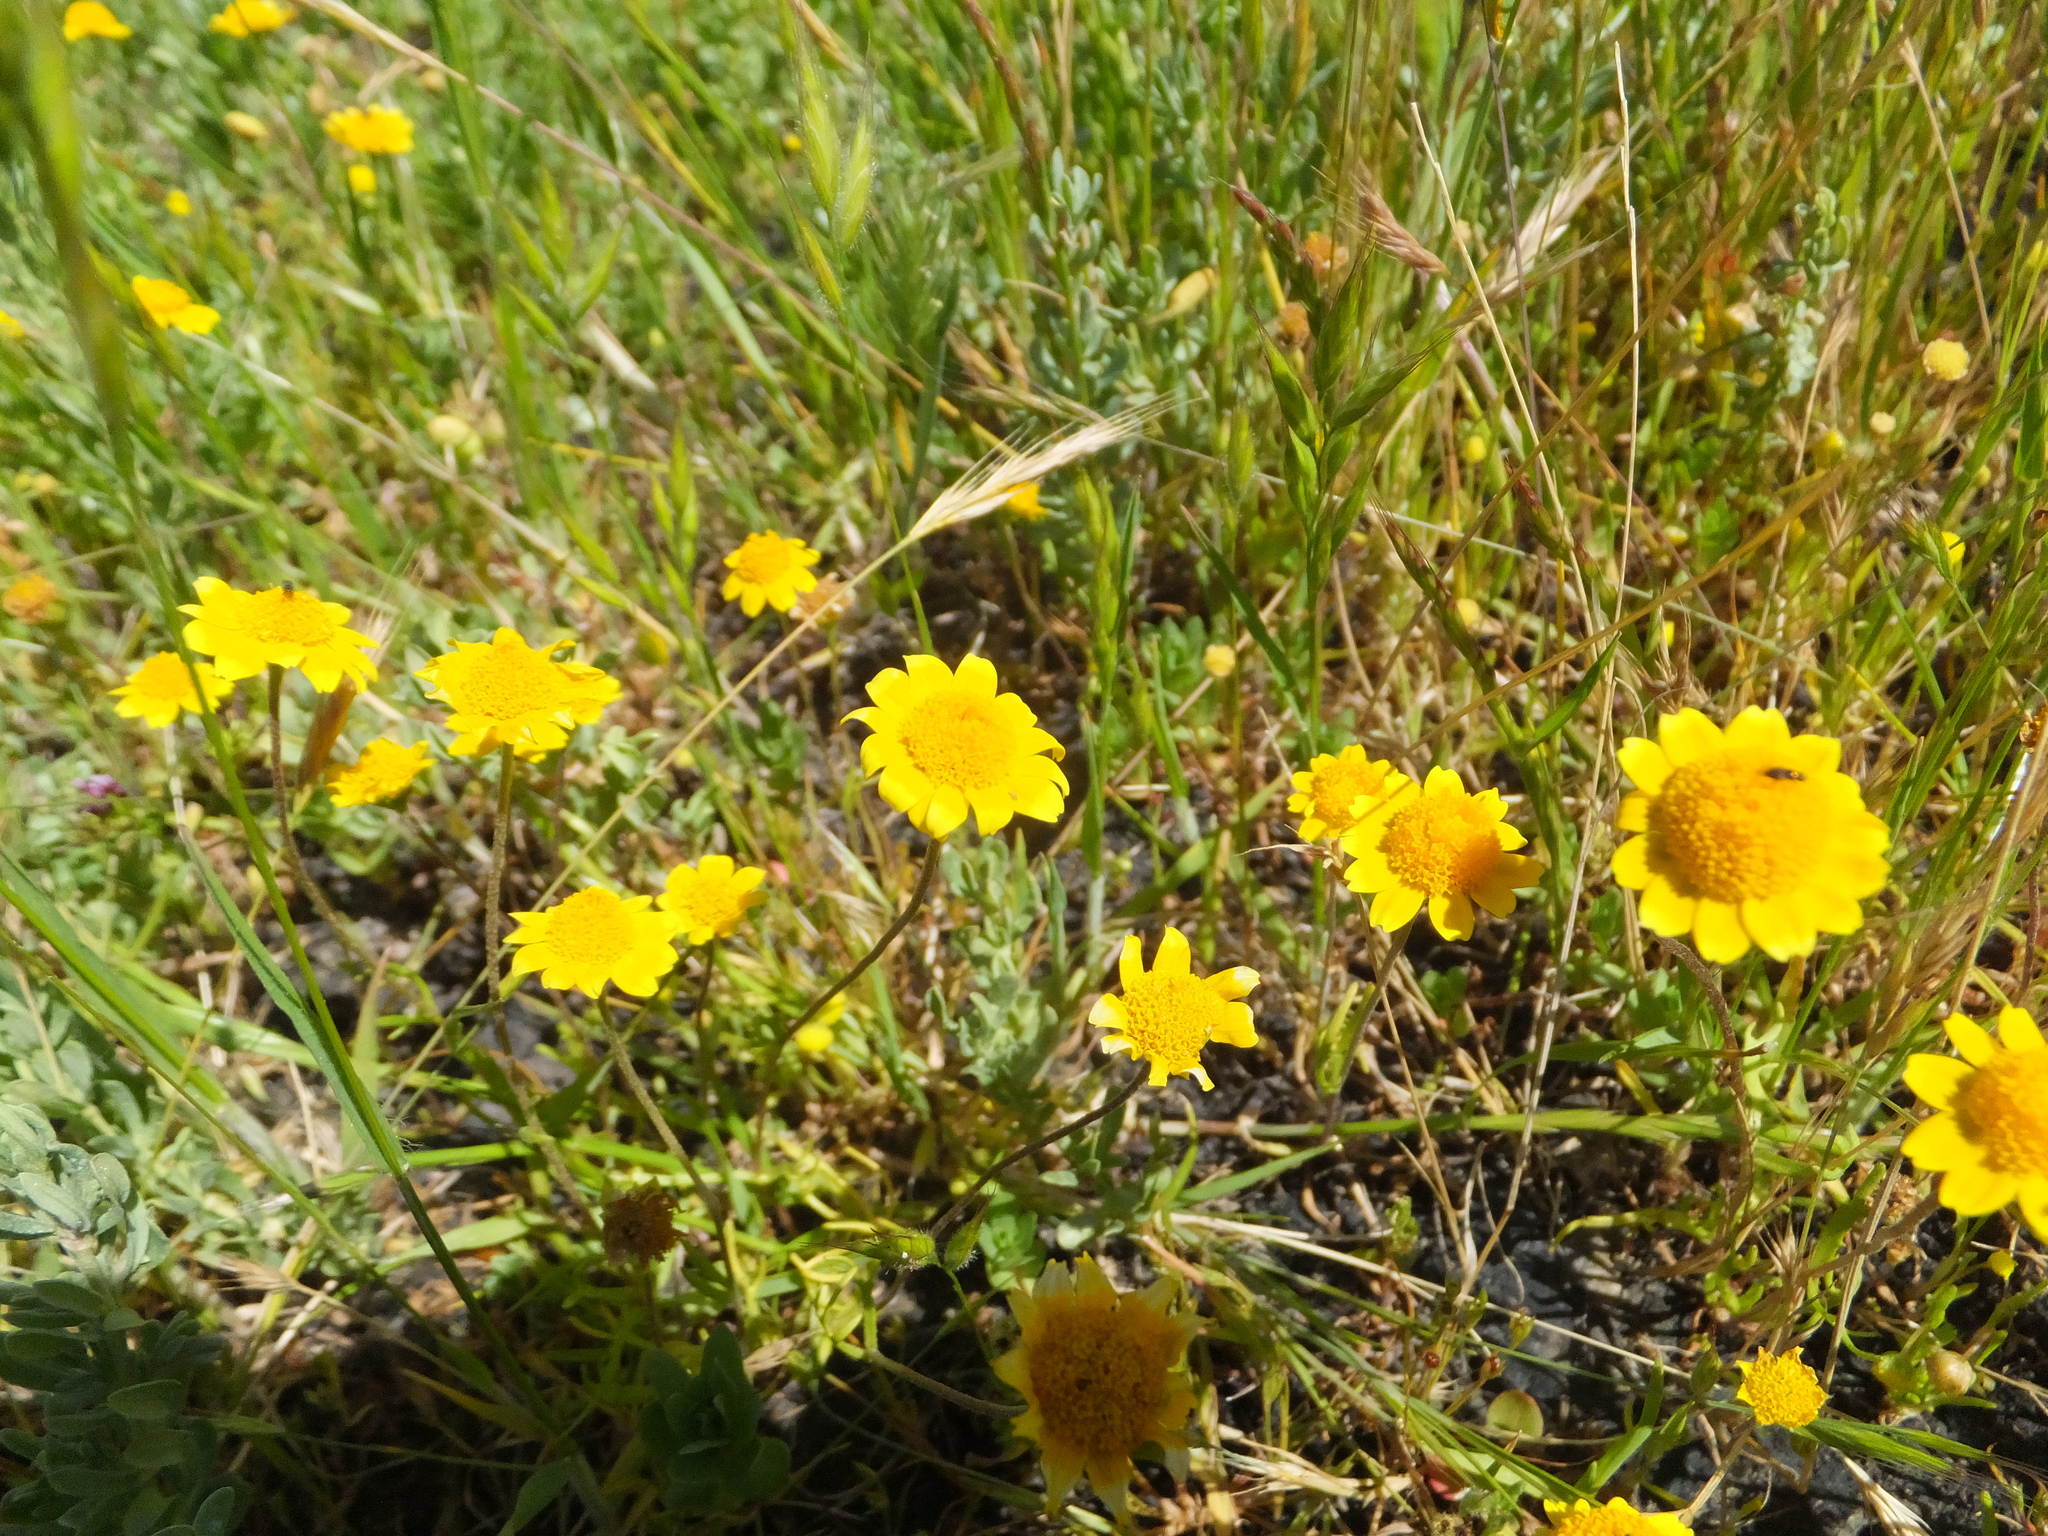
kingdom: Plantae
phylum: Tracheophyta
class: Magnoliopsida
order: Asterales
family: Asteraceae
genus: Lasthenia
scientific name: Lasthenia conjugens
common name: Contra costa goldfields
